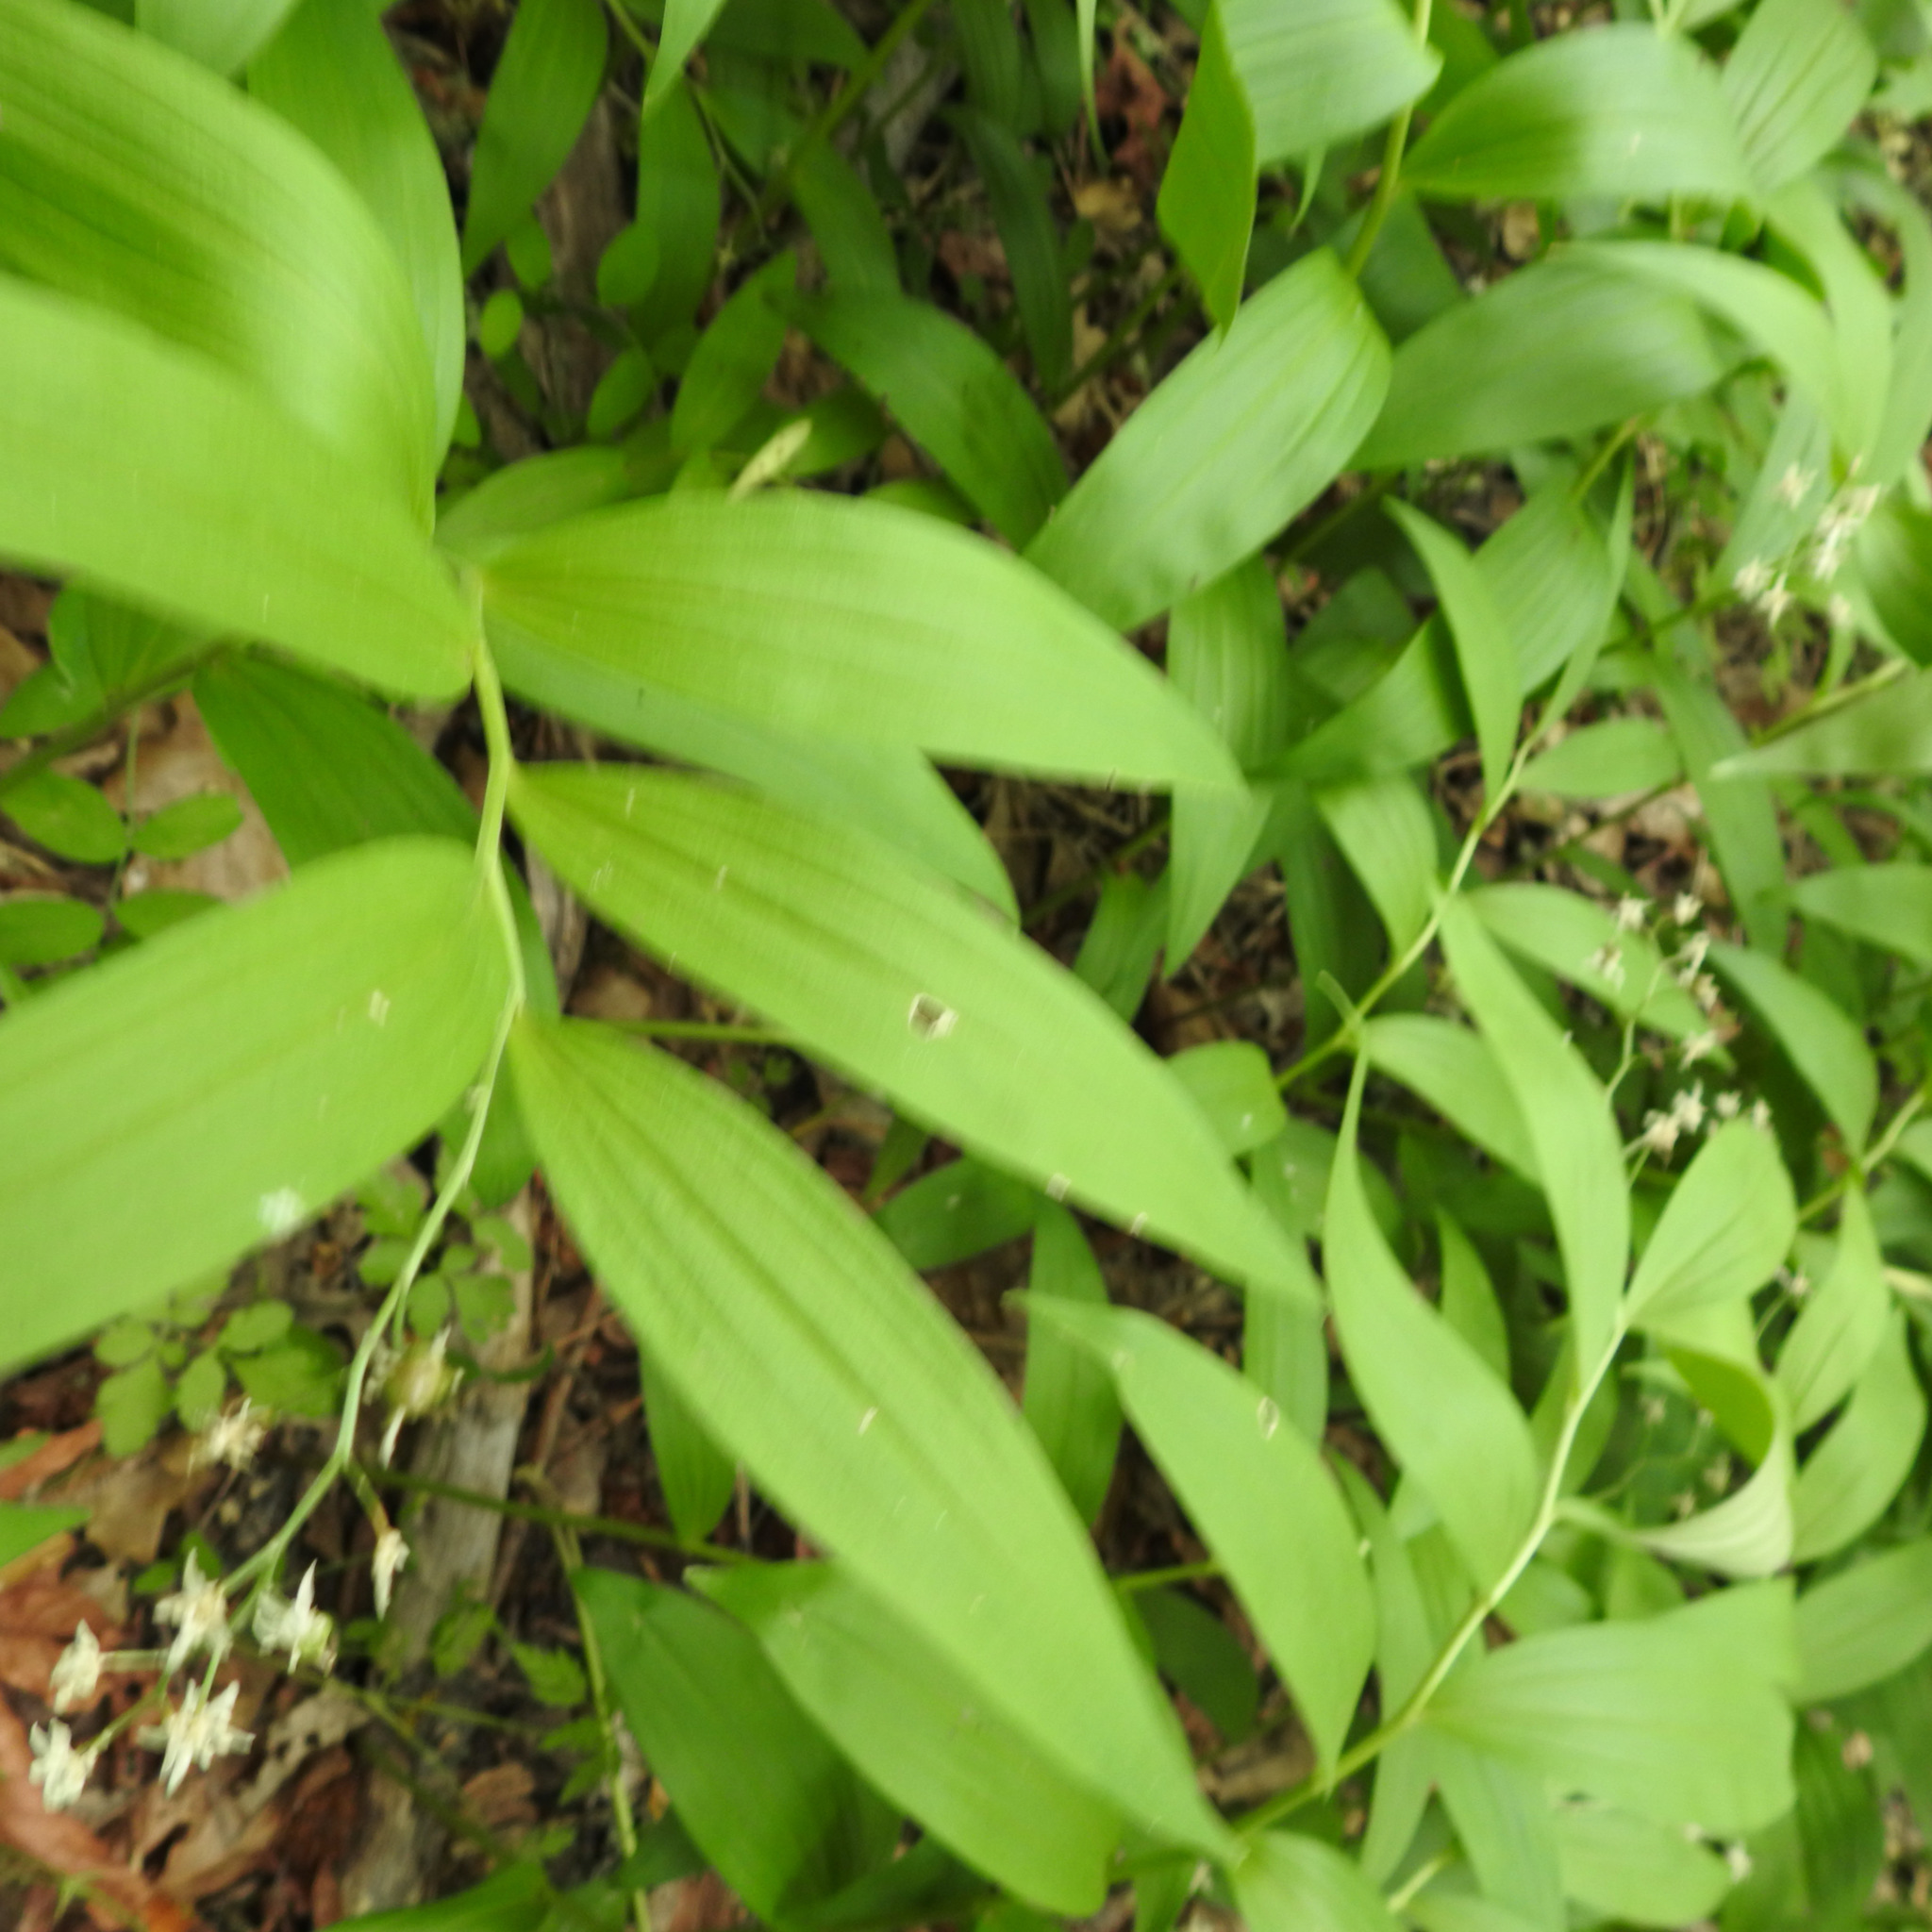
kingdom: Plantae
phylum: Tracheophyta
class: Liliopsida
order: Asparagales
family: Asparagaceae
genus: Maianthemum
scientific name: Maianthemum stellatum
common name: Little false solomon's seal
